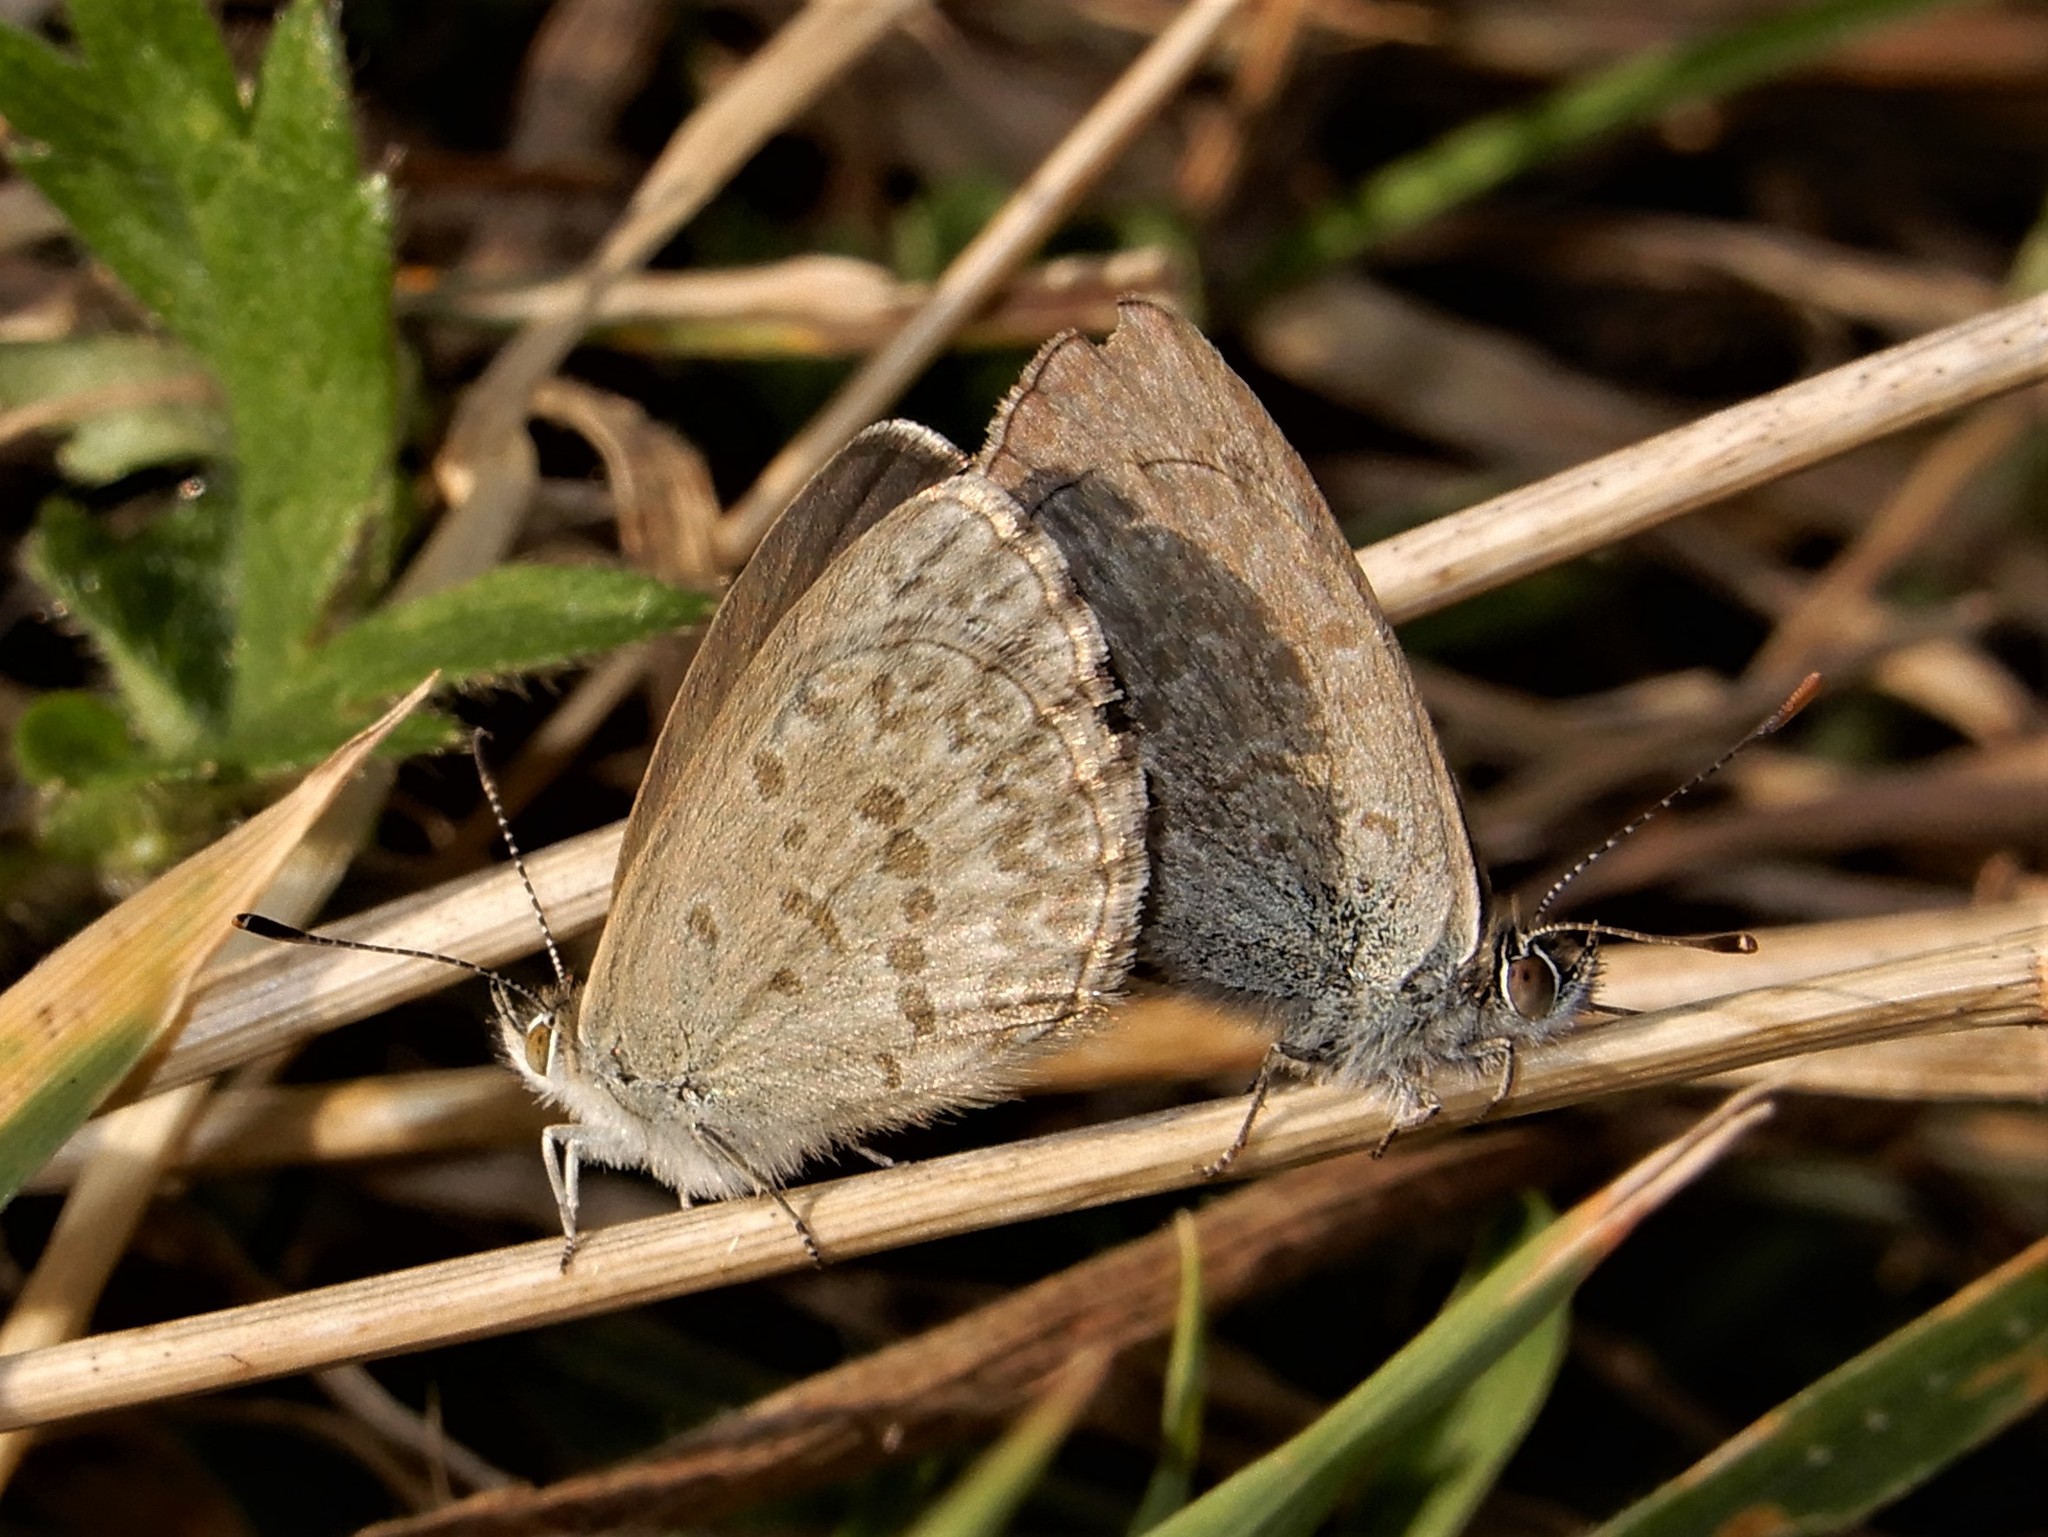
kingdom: Animalia
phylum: Arthropoda
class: Insecta
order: Lepidoptera
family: Lycaenidae
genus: Zizina
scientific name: Zizina labradus
